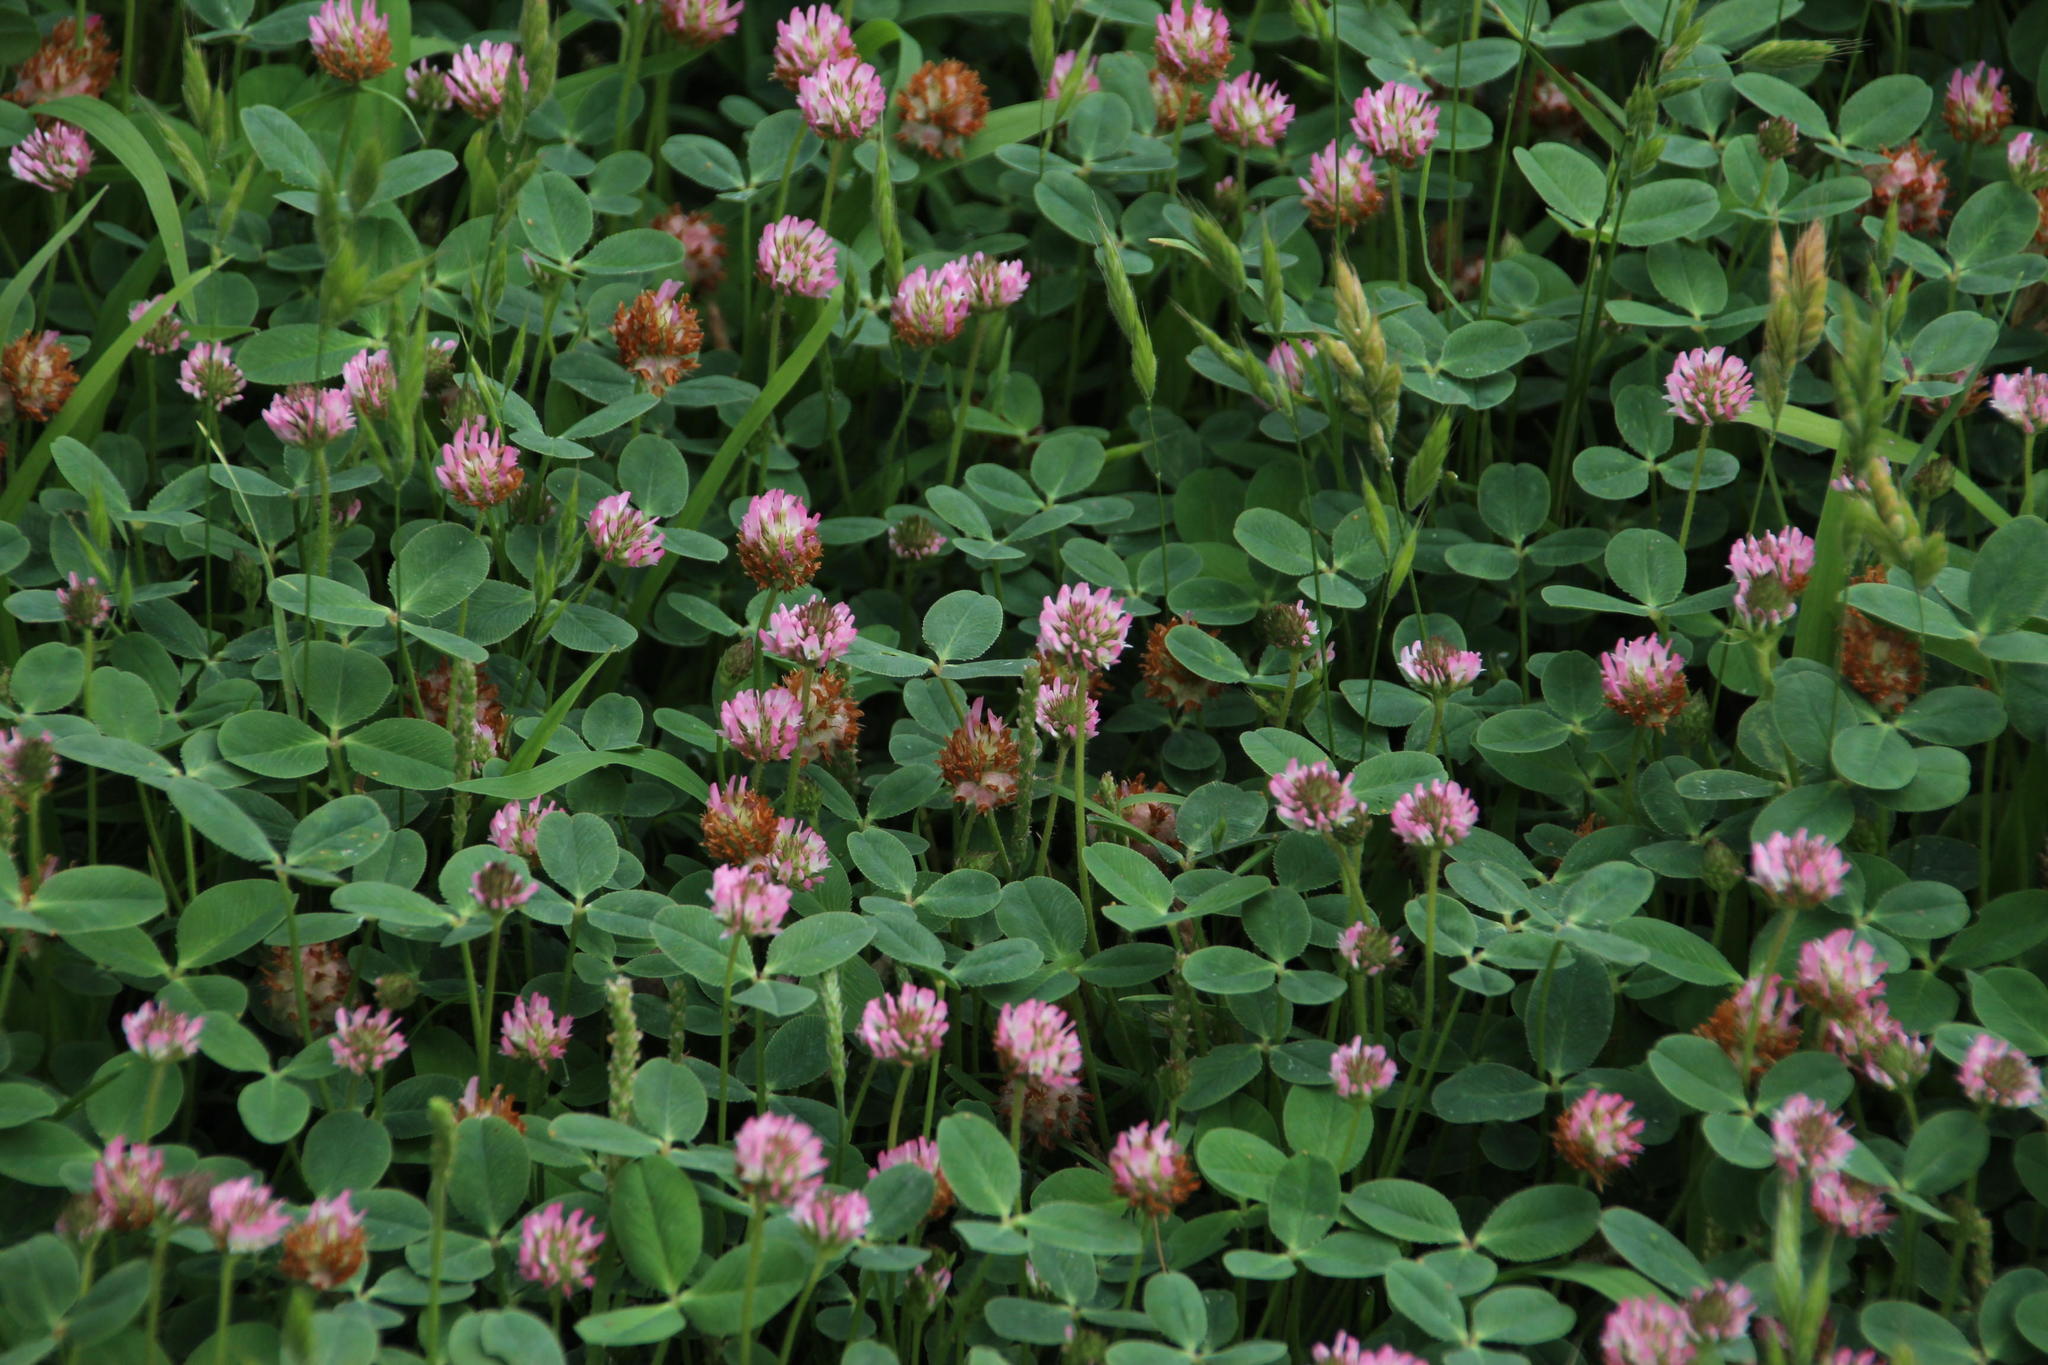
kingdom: Plantae
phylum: Tracheophyta
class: Magnoliopsida
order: Fabales
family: Fabaceae
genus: Trifolium
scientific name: Trifolium fragiferum
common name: Strawberry clover
